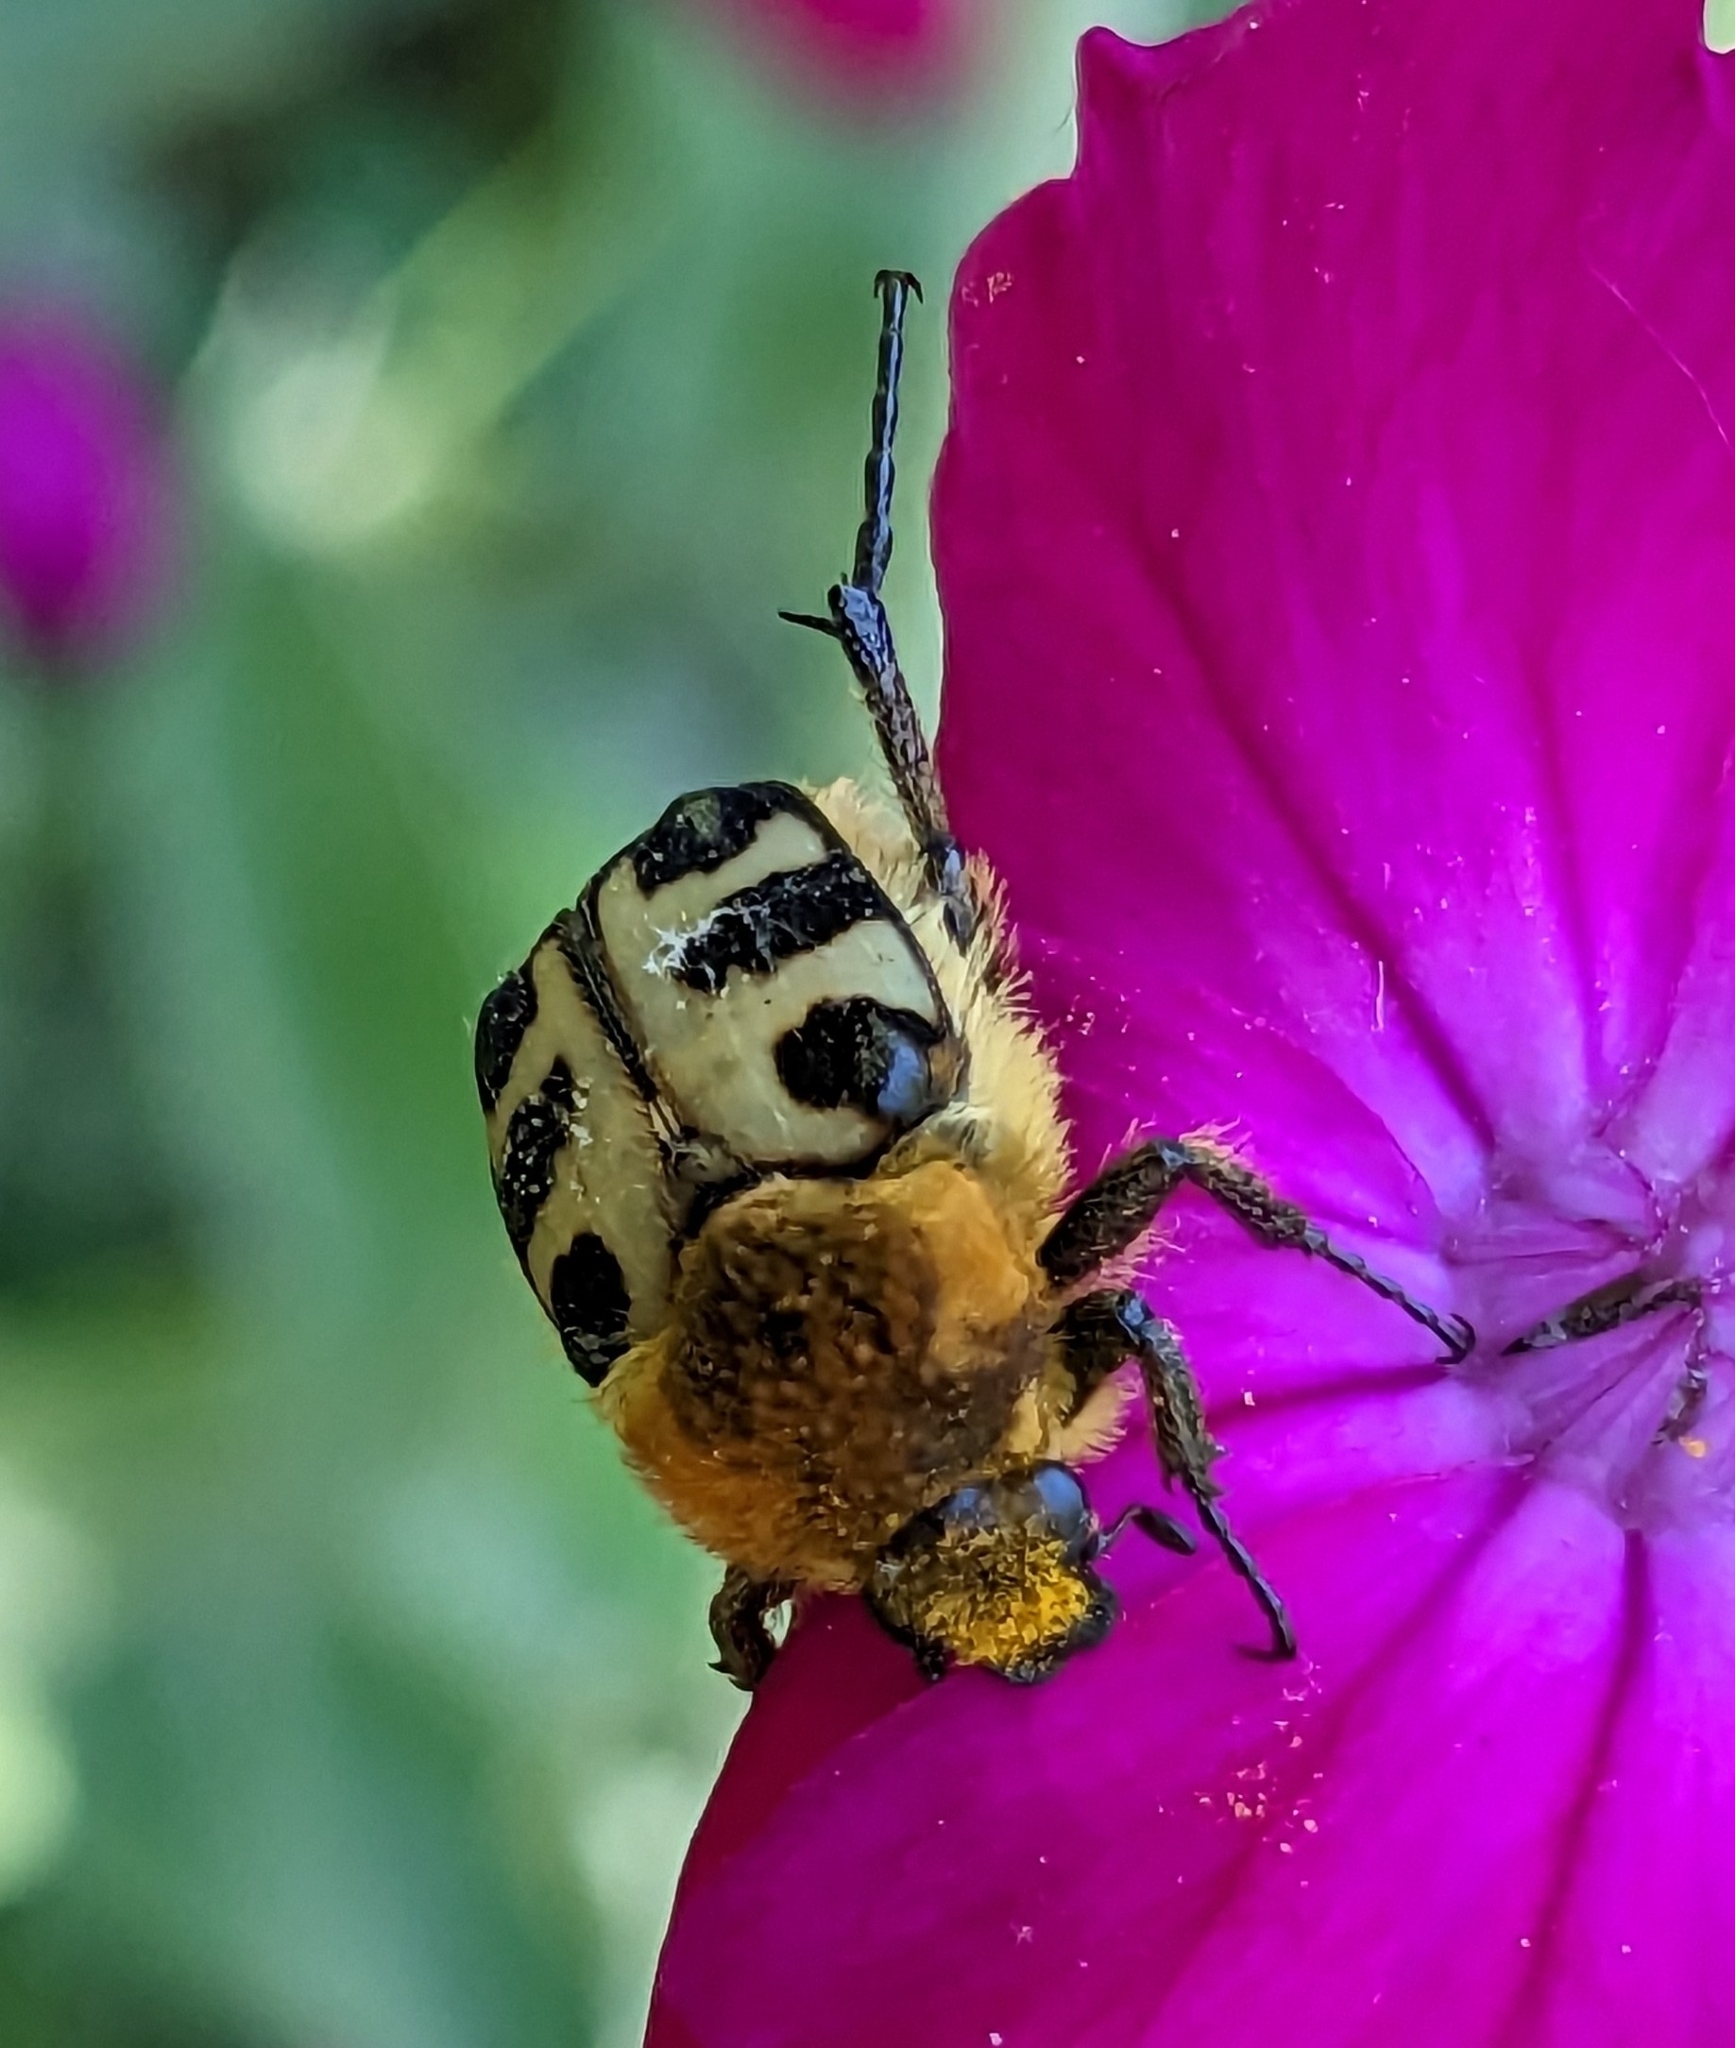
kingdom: Animalia
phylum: Arthropoda
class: Insecta
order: Coleoptera
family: Scarabaeidae
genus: Trichius
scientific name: Trichius gallicus
